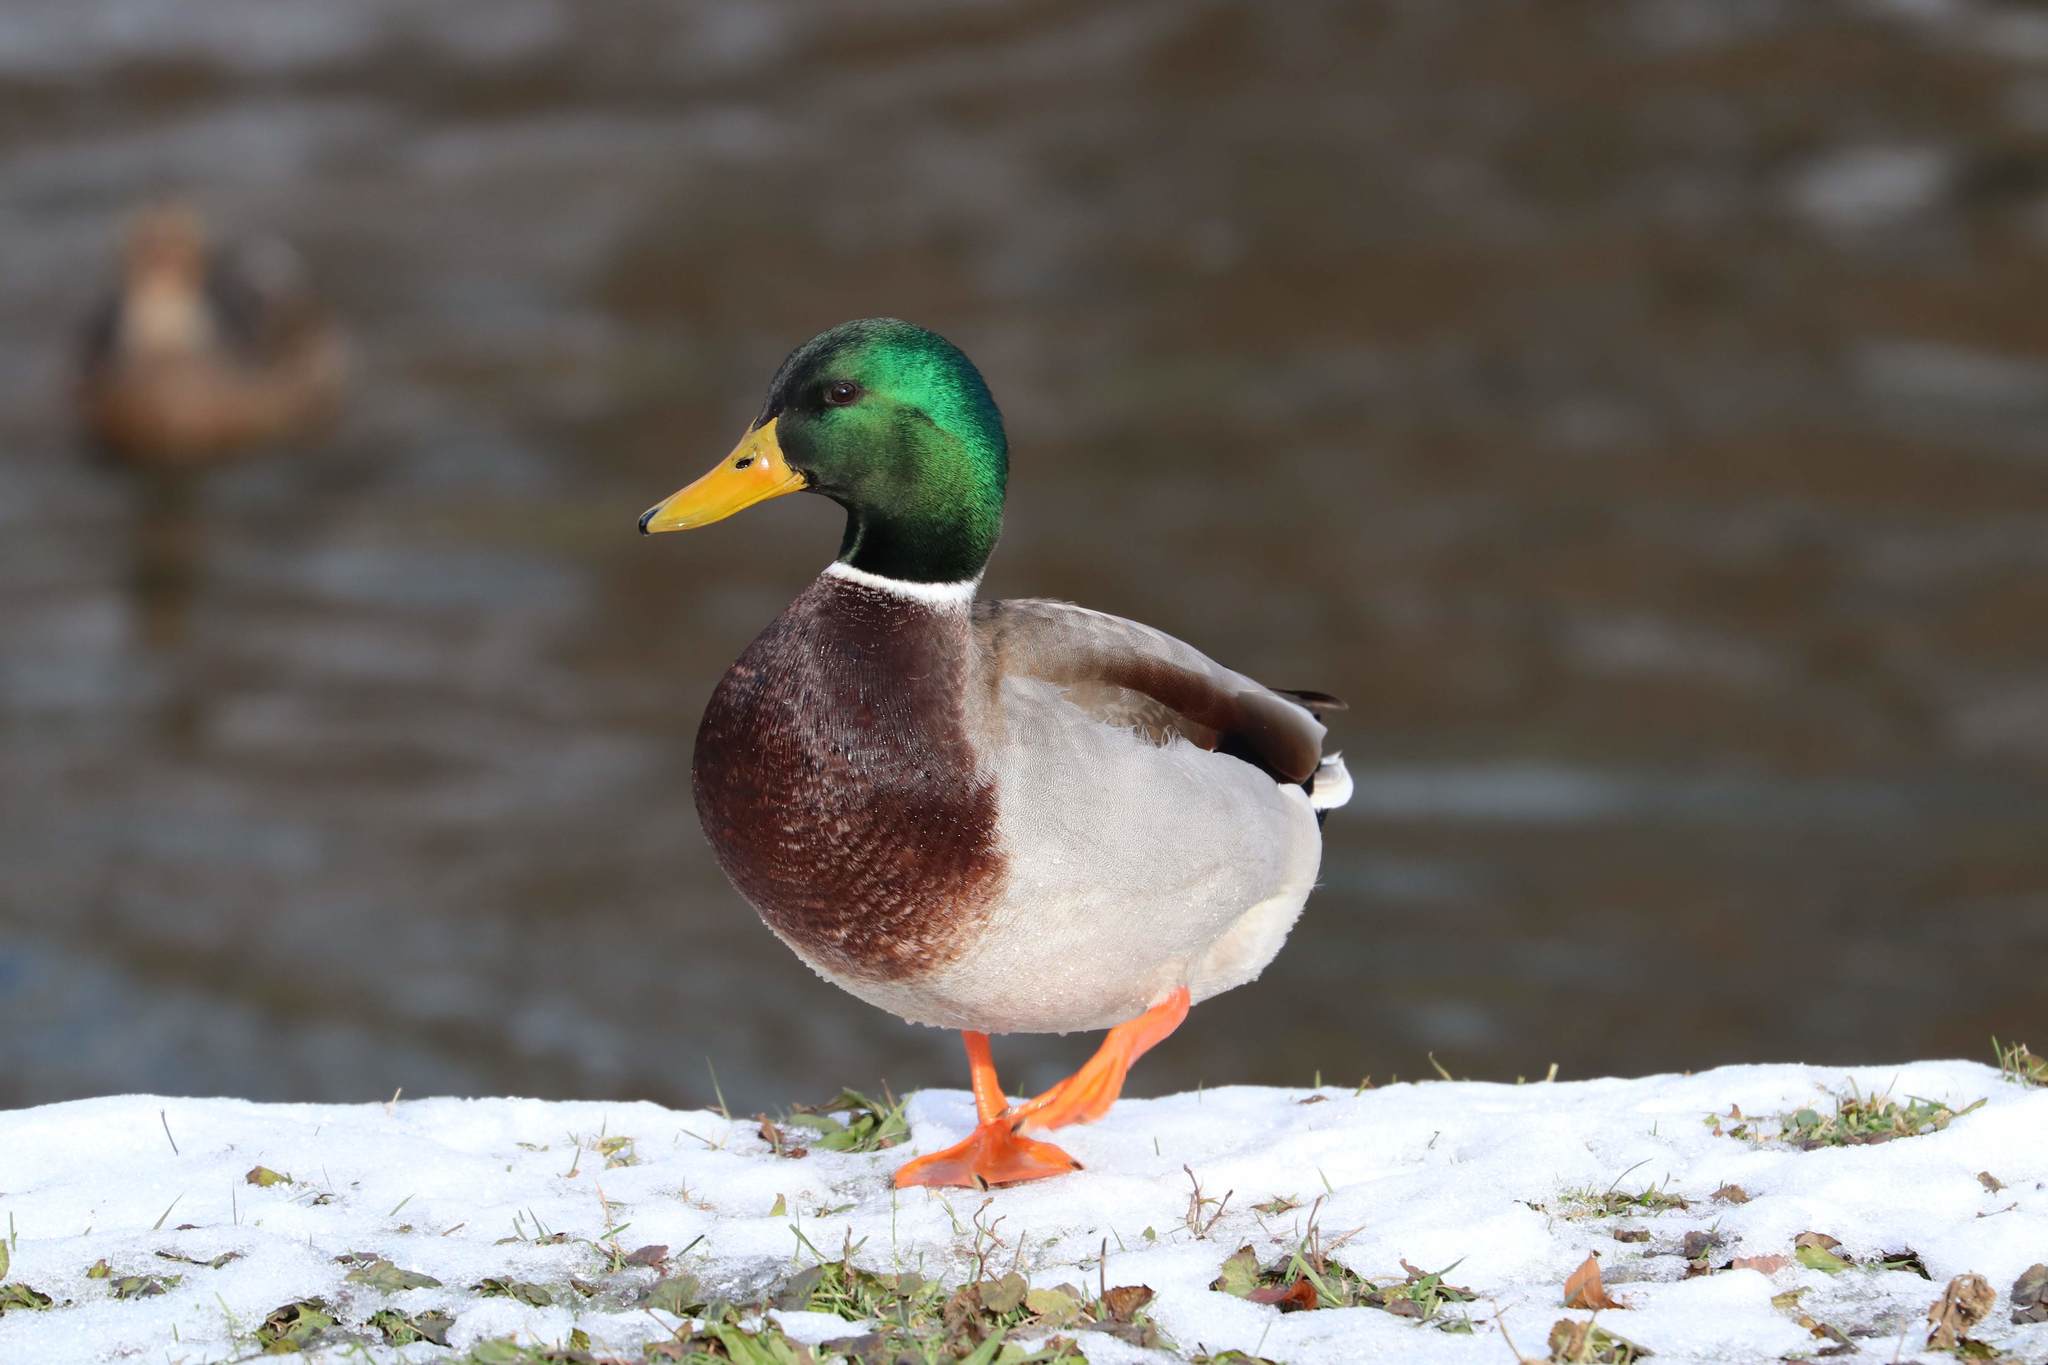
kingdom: Animalia
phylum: Chordata
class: Aves
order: Anseriformes
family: Anatidae
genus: Anas
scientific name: Anas platyrhynchos
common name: Mallard
